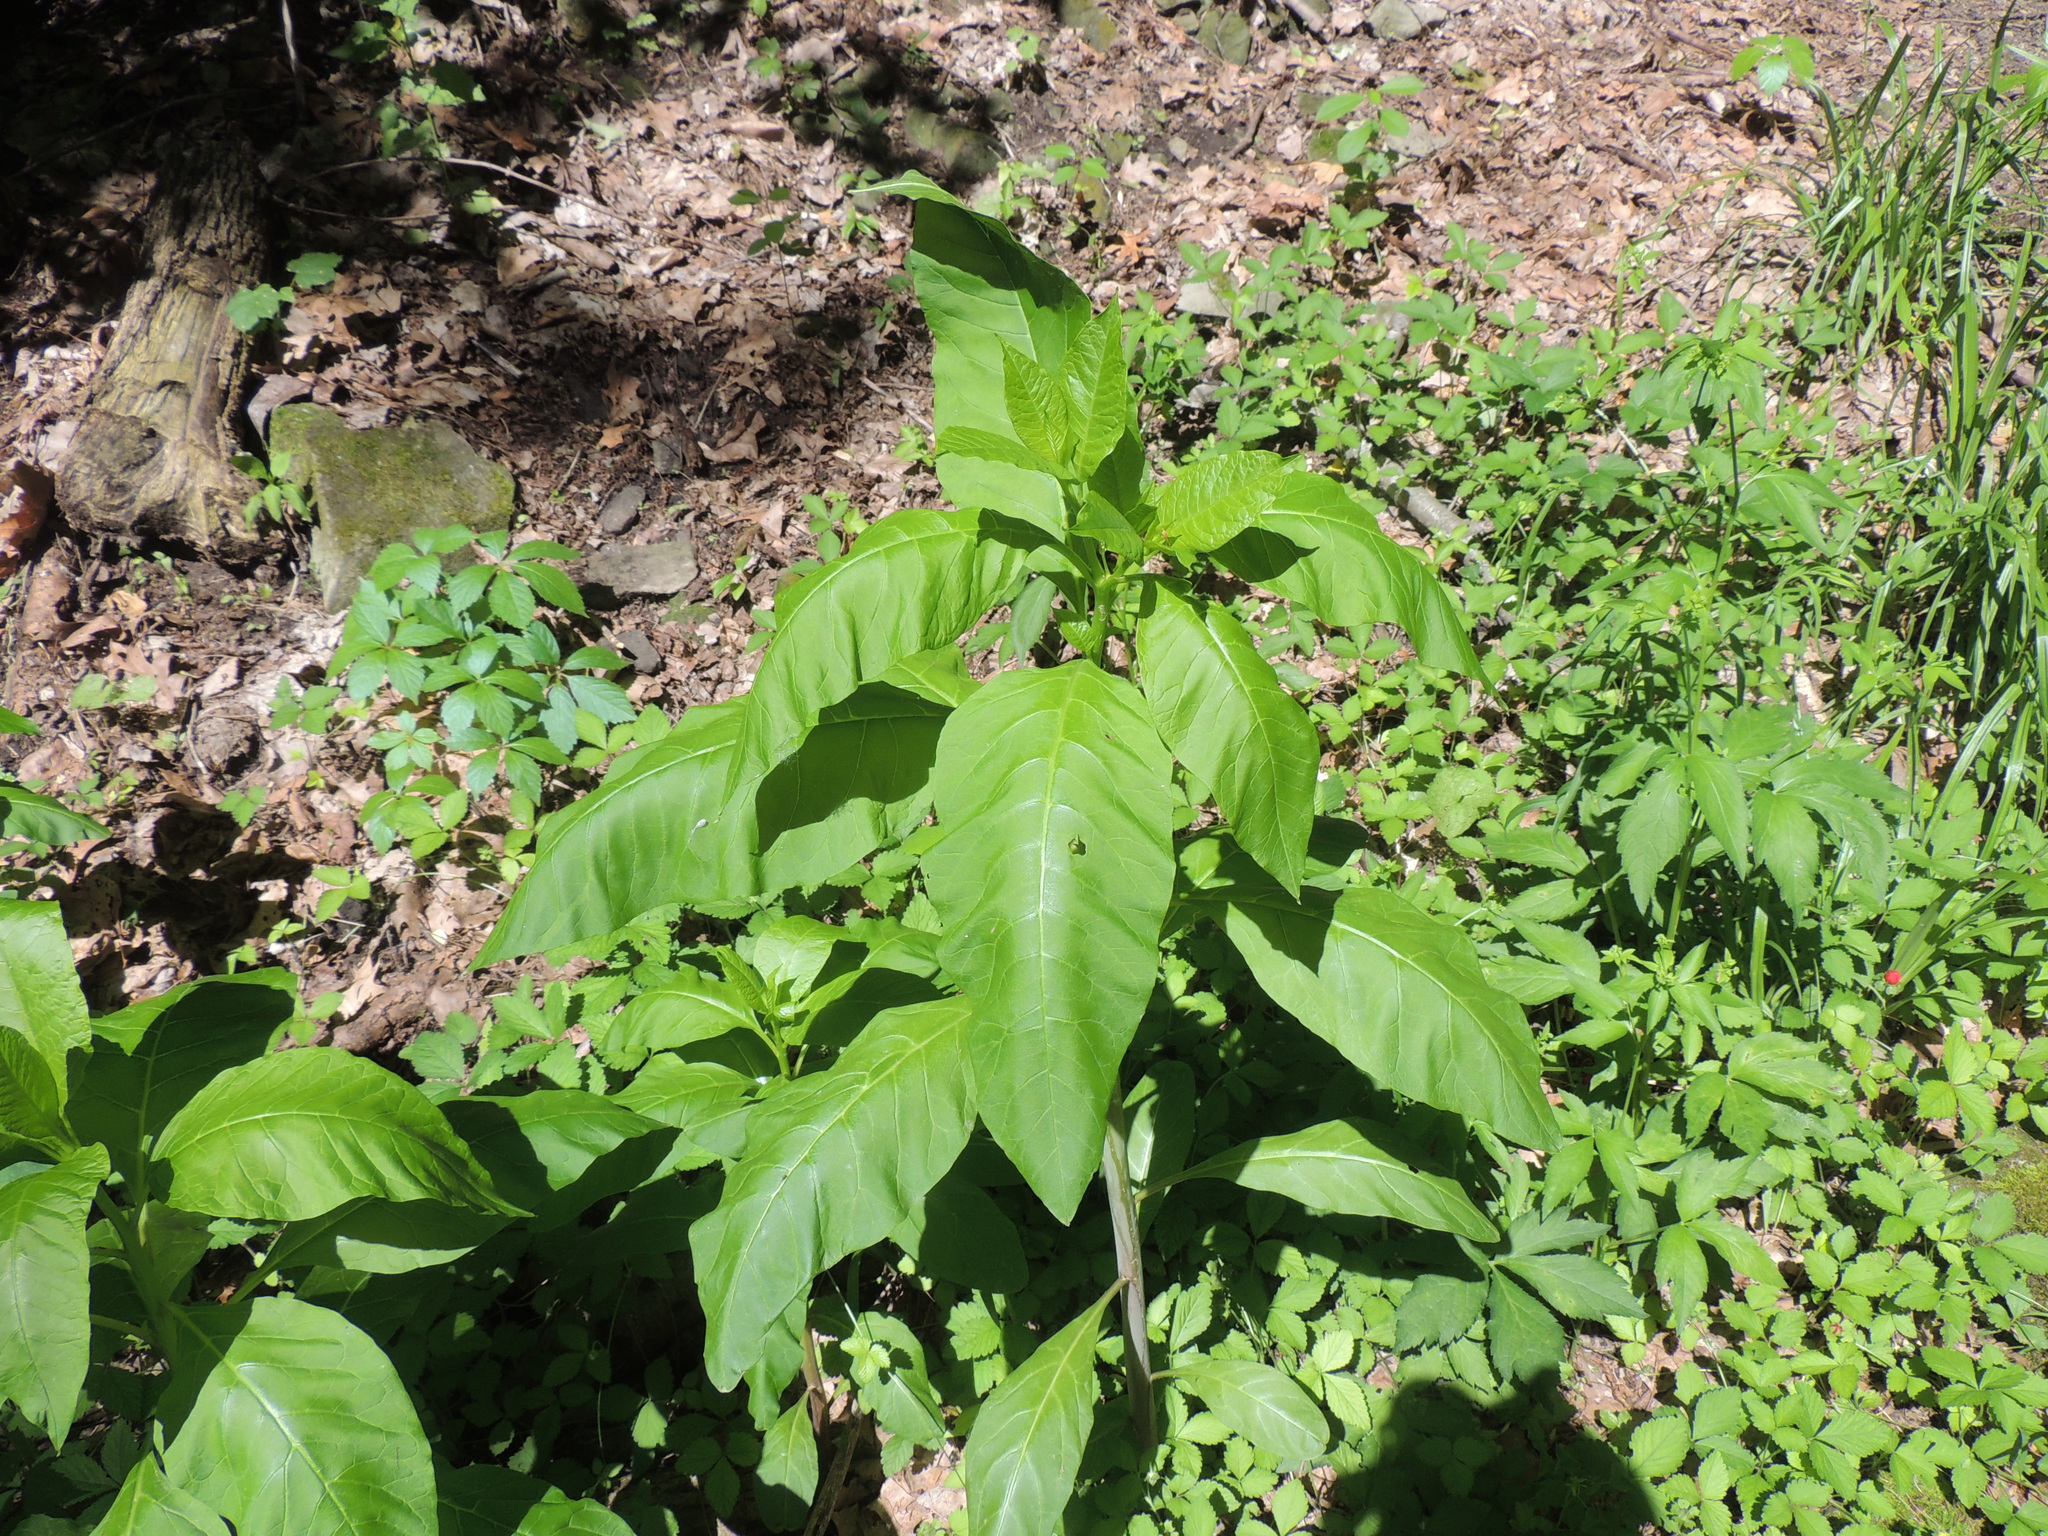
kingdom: Plantae
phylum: Tracheophyta
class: Magnoliopsida
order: Caryophyllales
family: Phytolaccaceae
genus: Phytolacca
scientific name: Phytolacca americana
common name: American pokeweed
